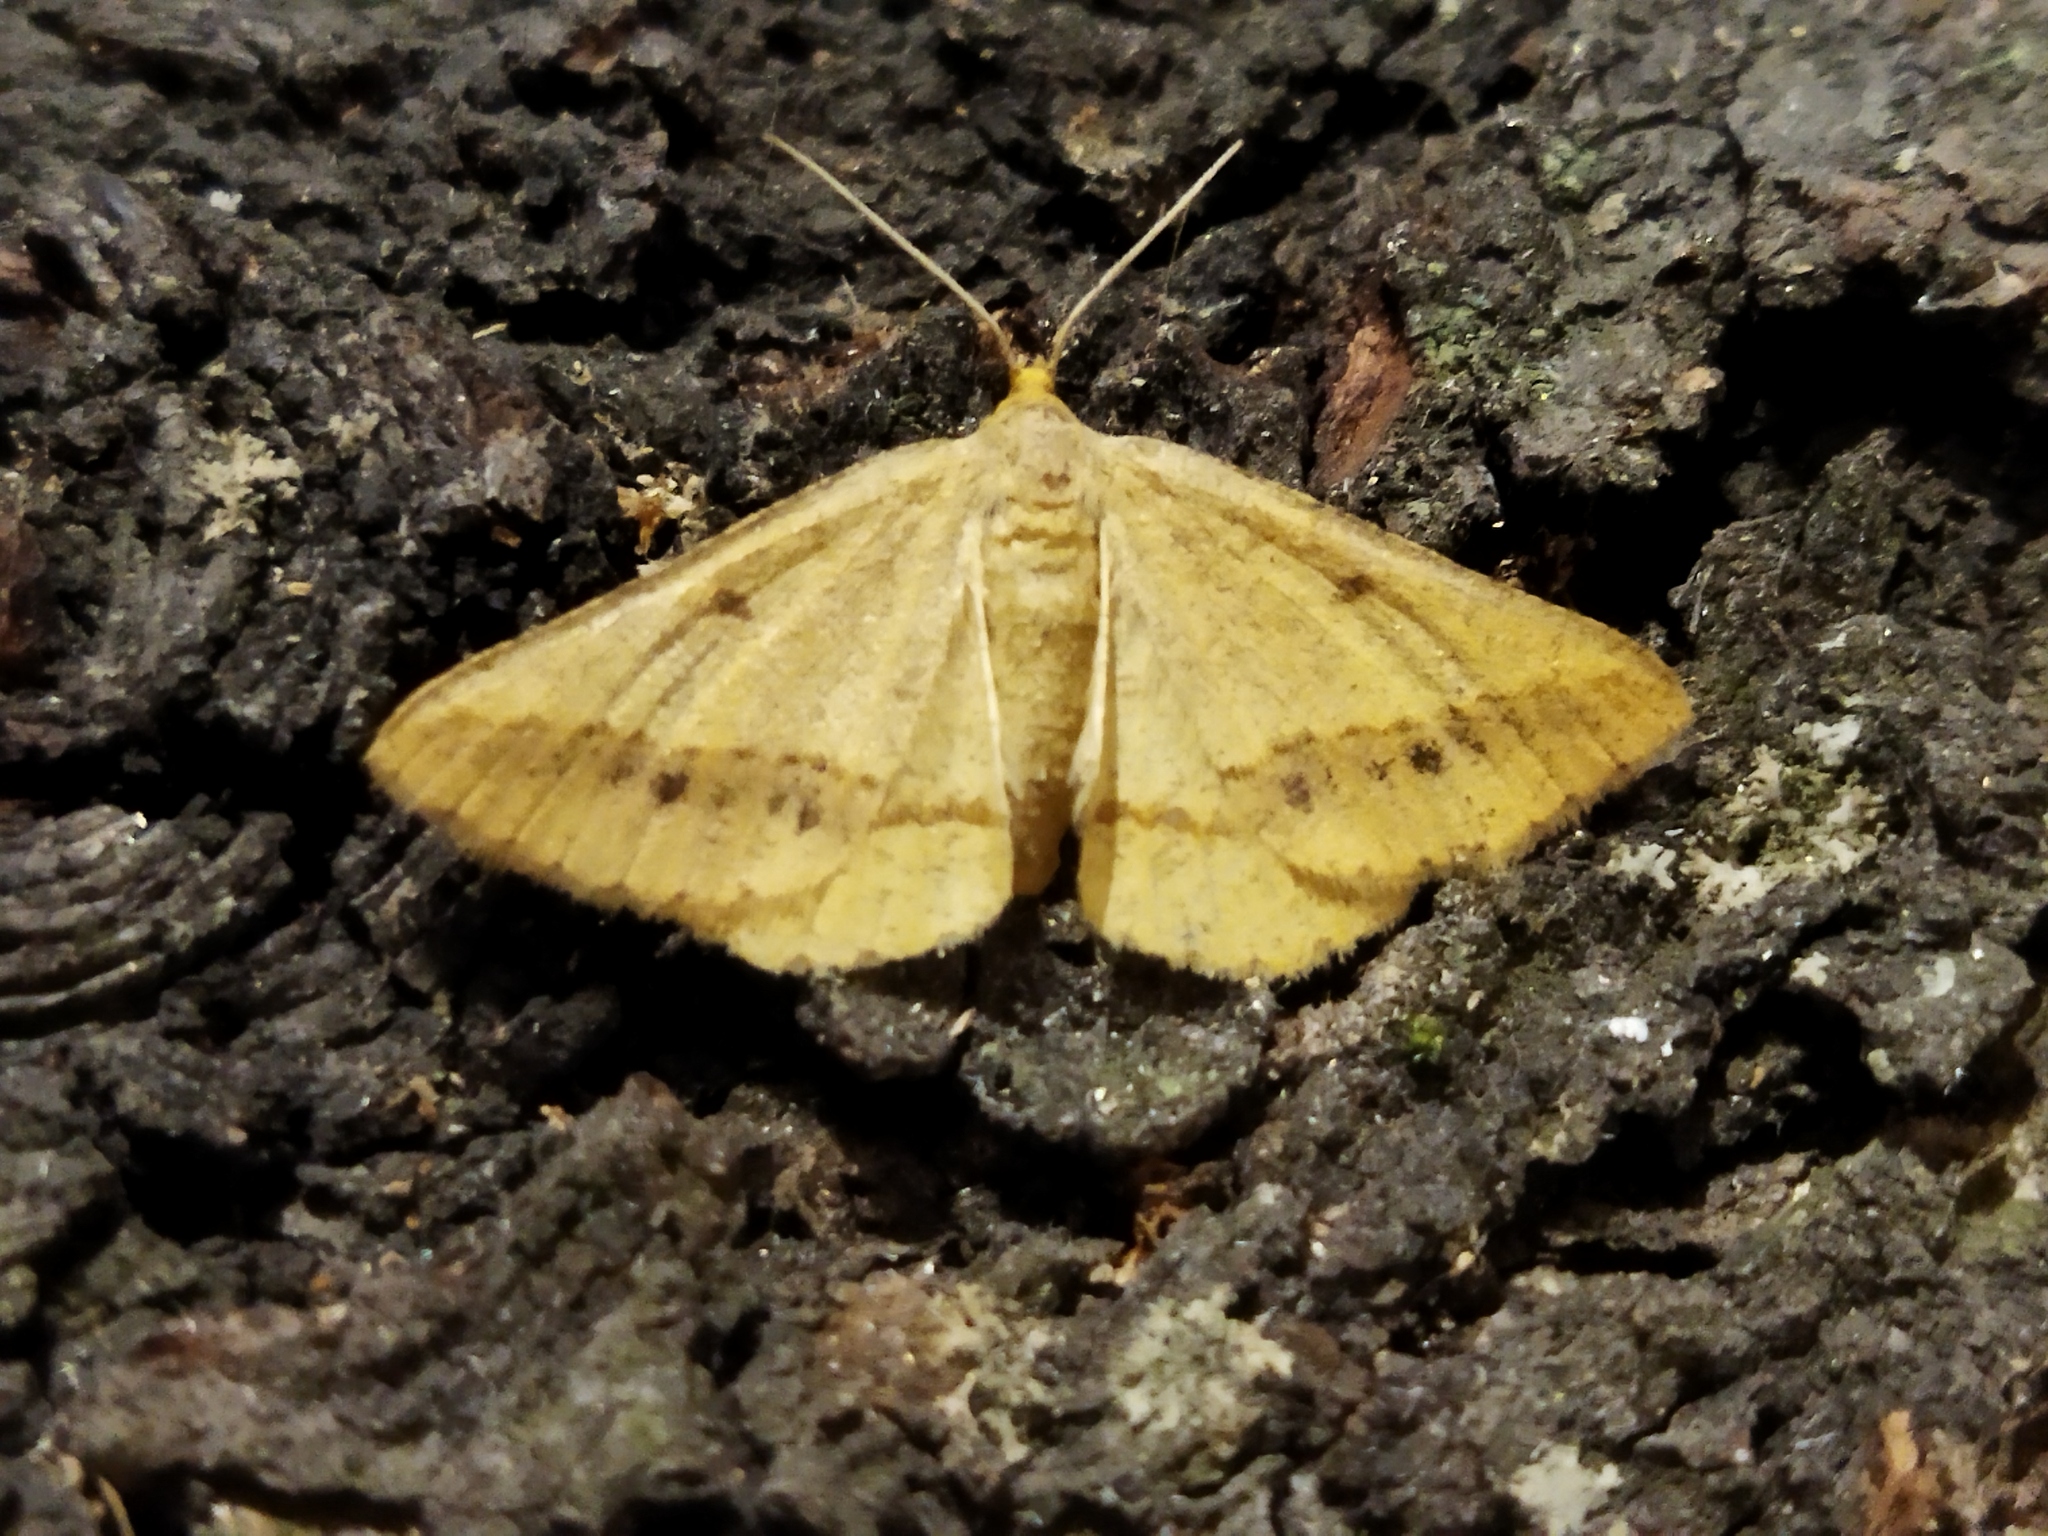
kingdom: Animalia
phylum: Arthropoda
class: Insecta
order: Lepidoptera
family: Geometridae
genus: Tephrina
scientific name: Tephrina arenacearia
